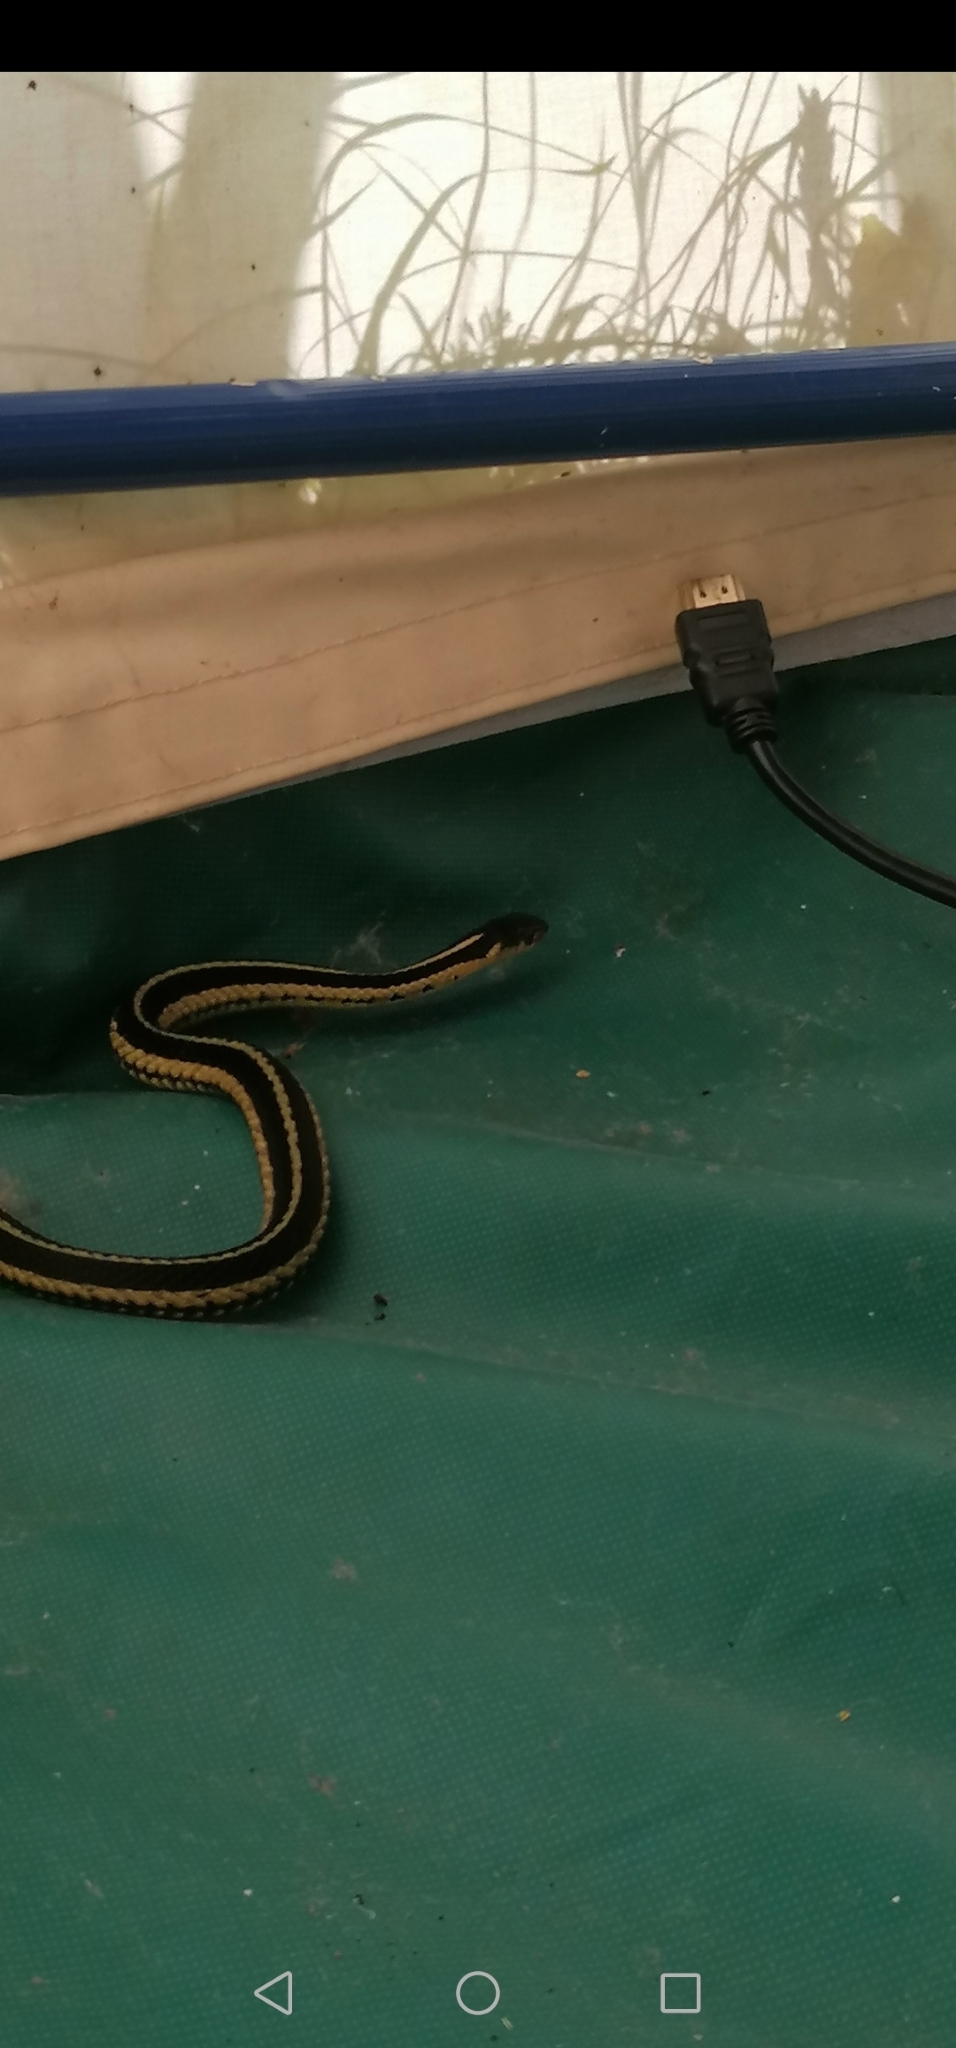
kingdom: Animalia
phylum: Chordata
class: Squamata
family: Colubridae
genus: Thamnophis
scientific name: Thamnophis sirtalis
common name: Common garter snake
